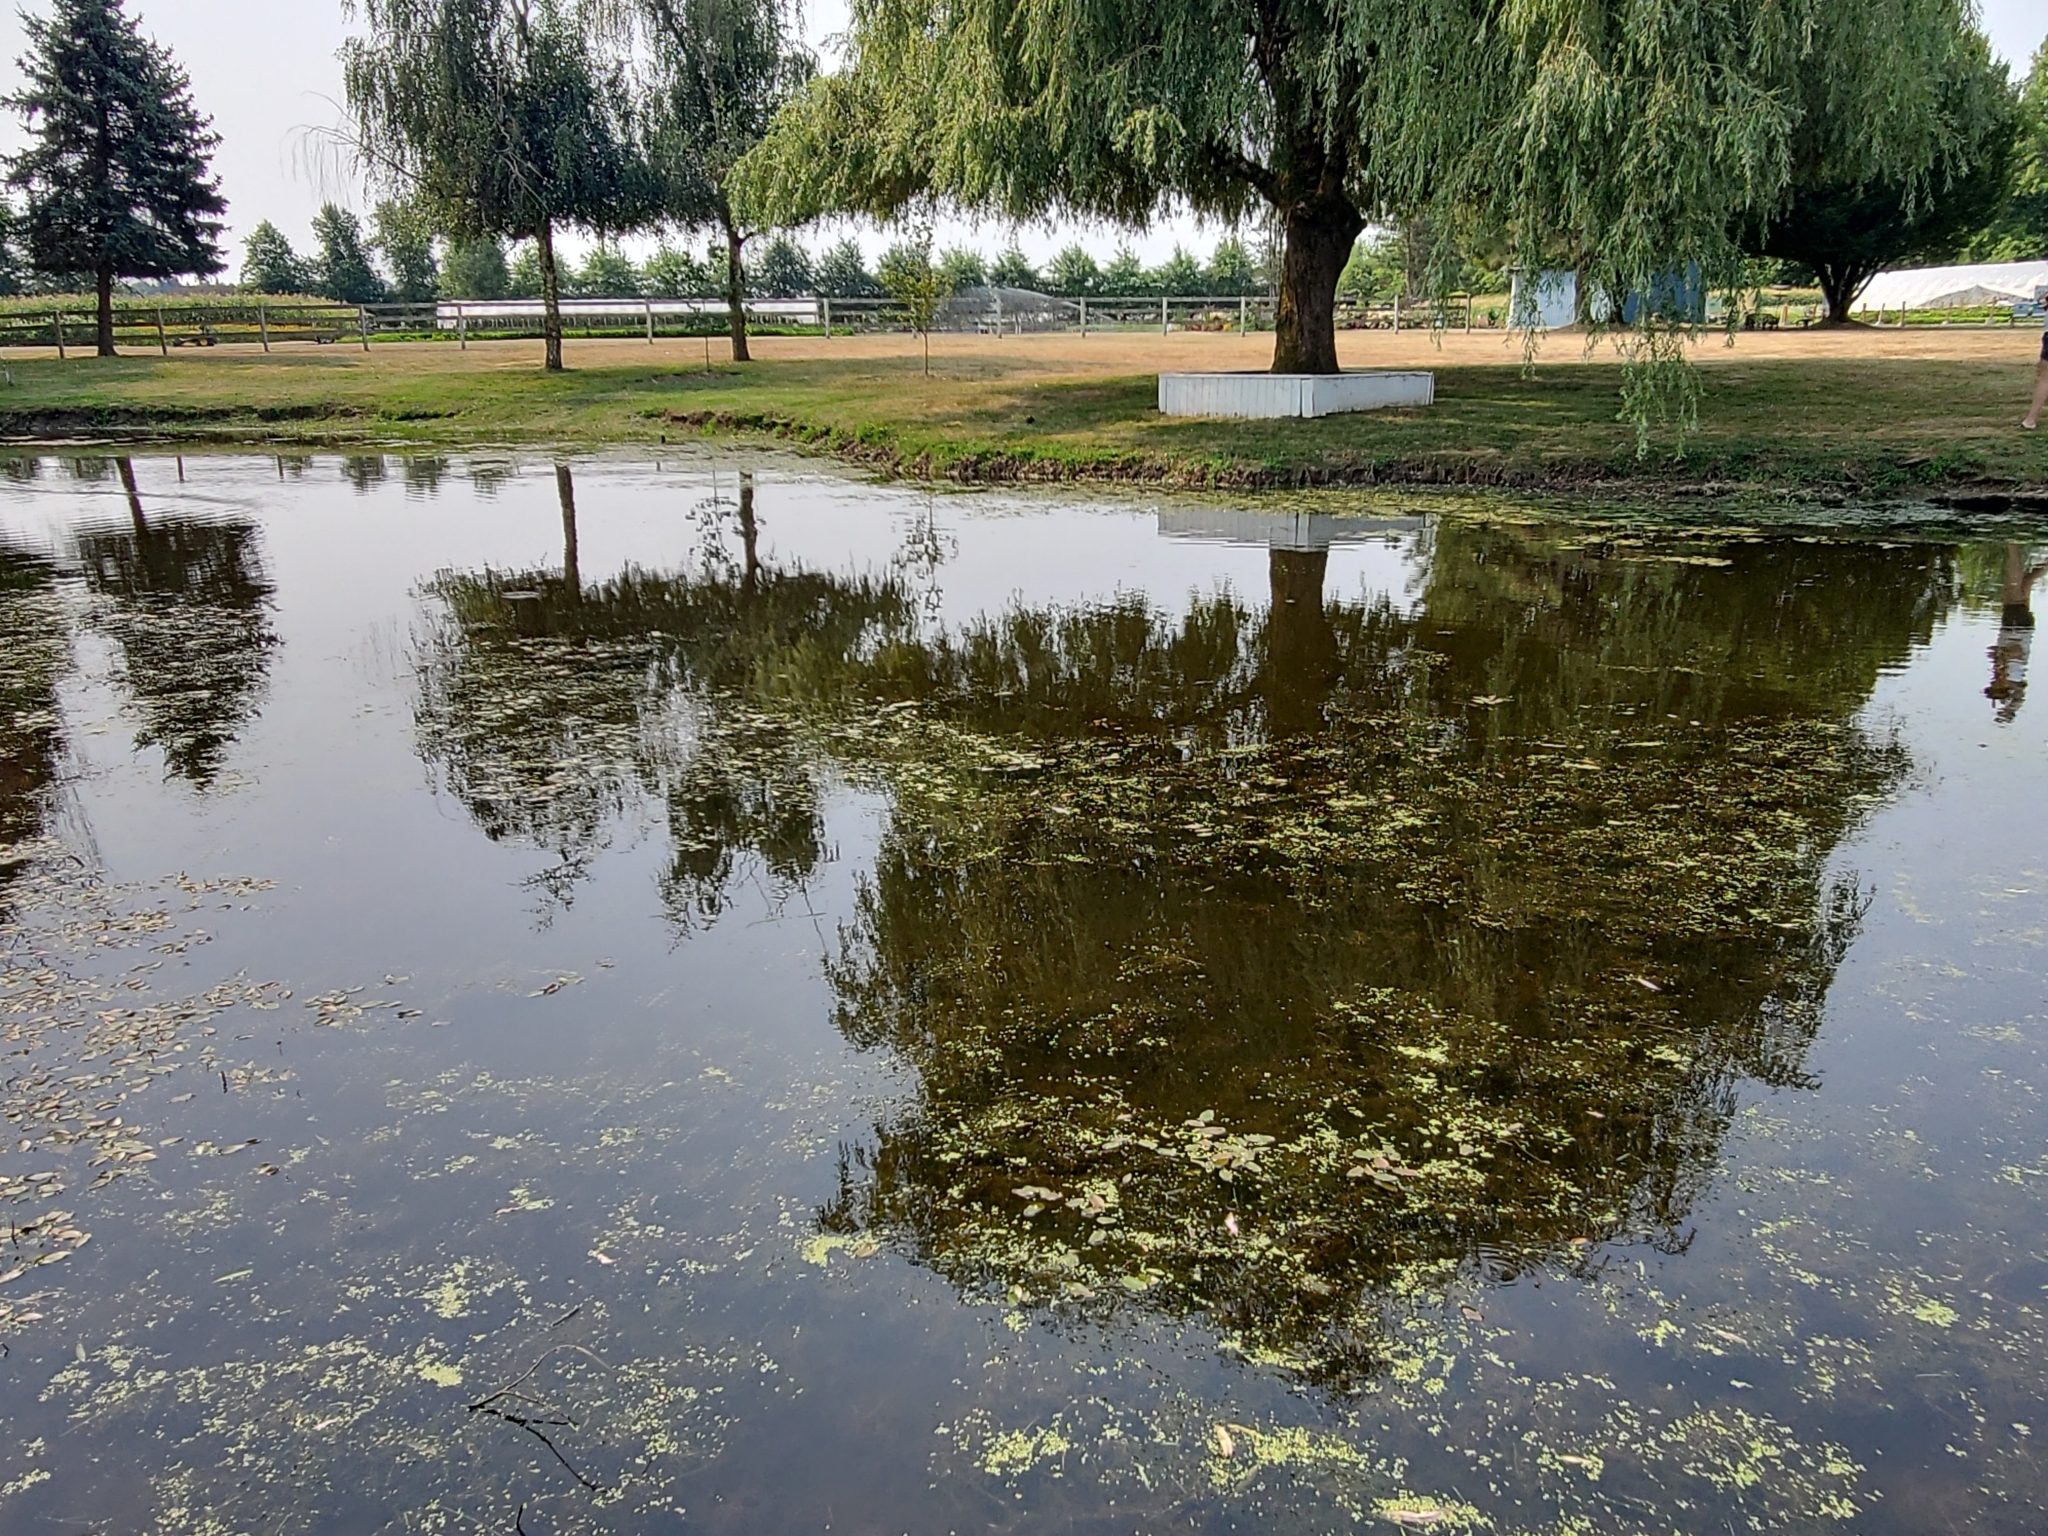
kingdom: Animalia
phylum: Chordata
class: Aves
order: Charadriiformes
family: Charadriidae
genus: Charadrius
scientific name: Charadrius vociferus
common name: Killdeer
